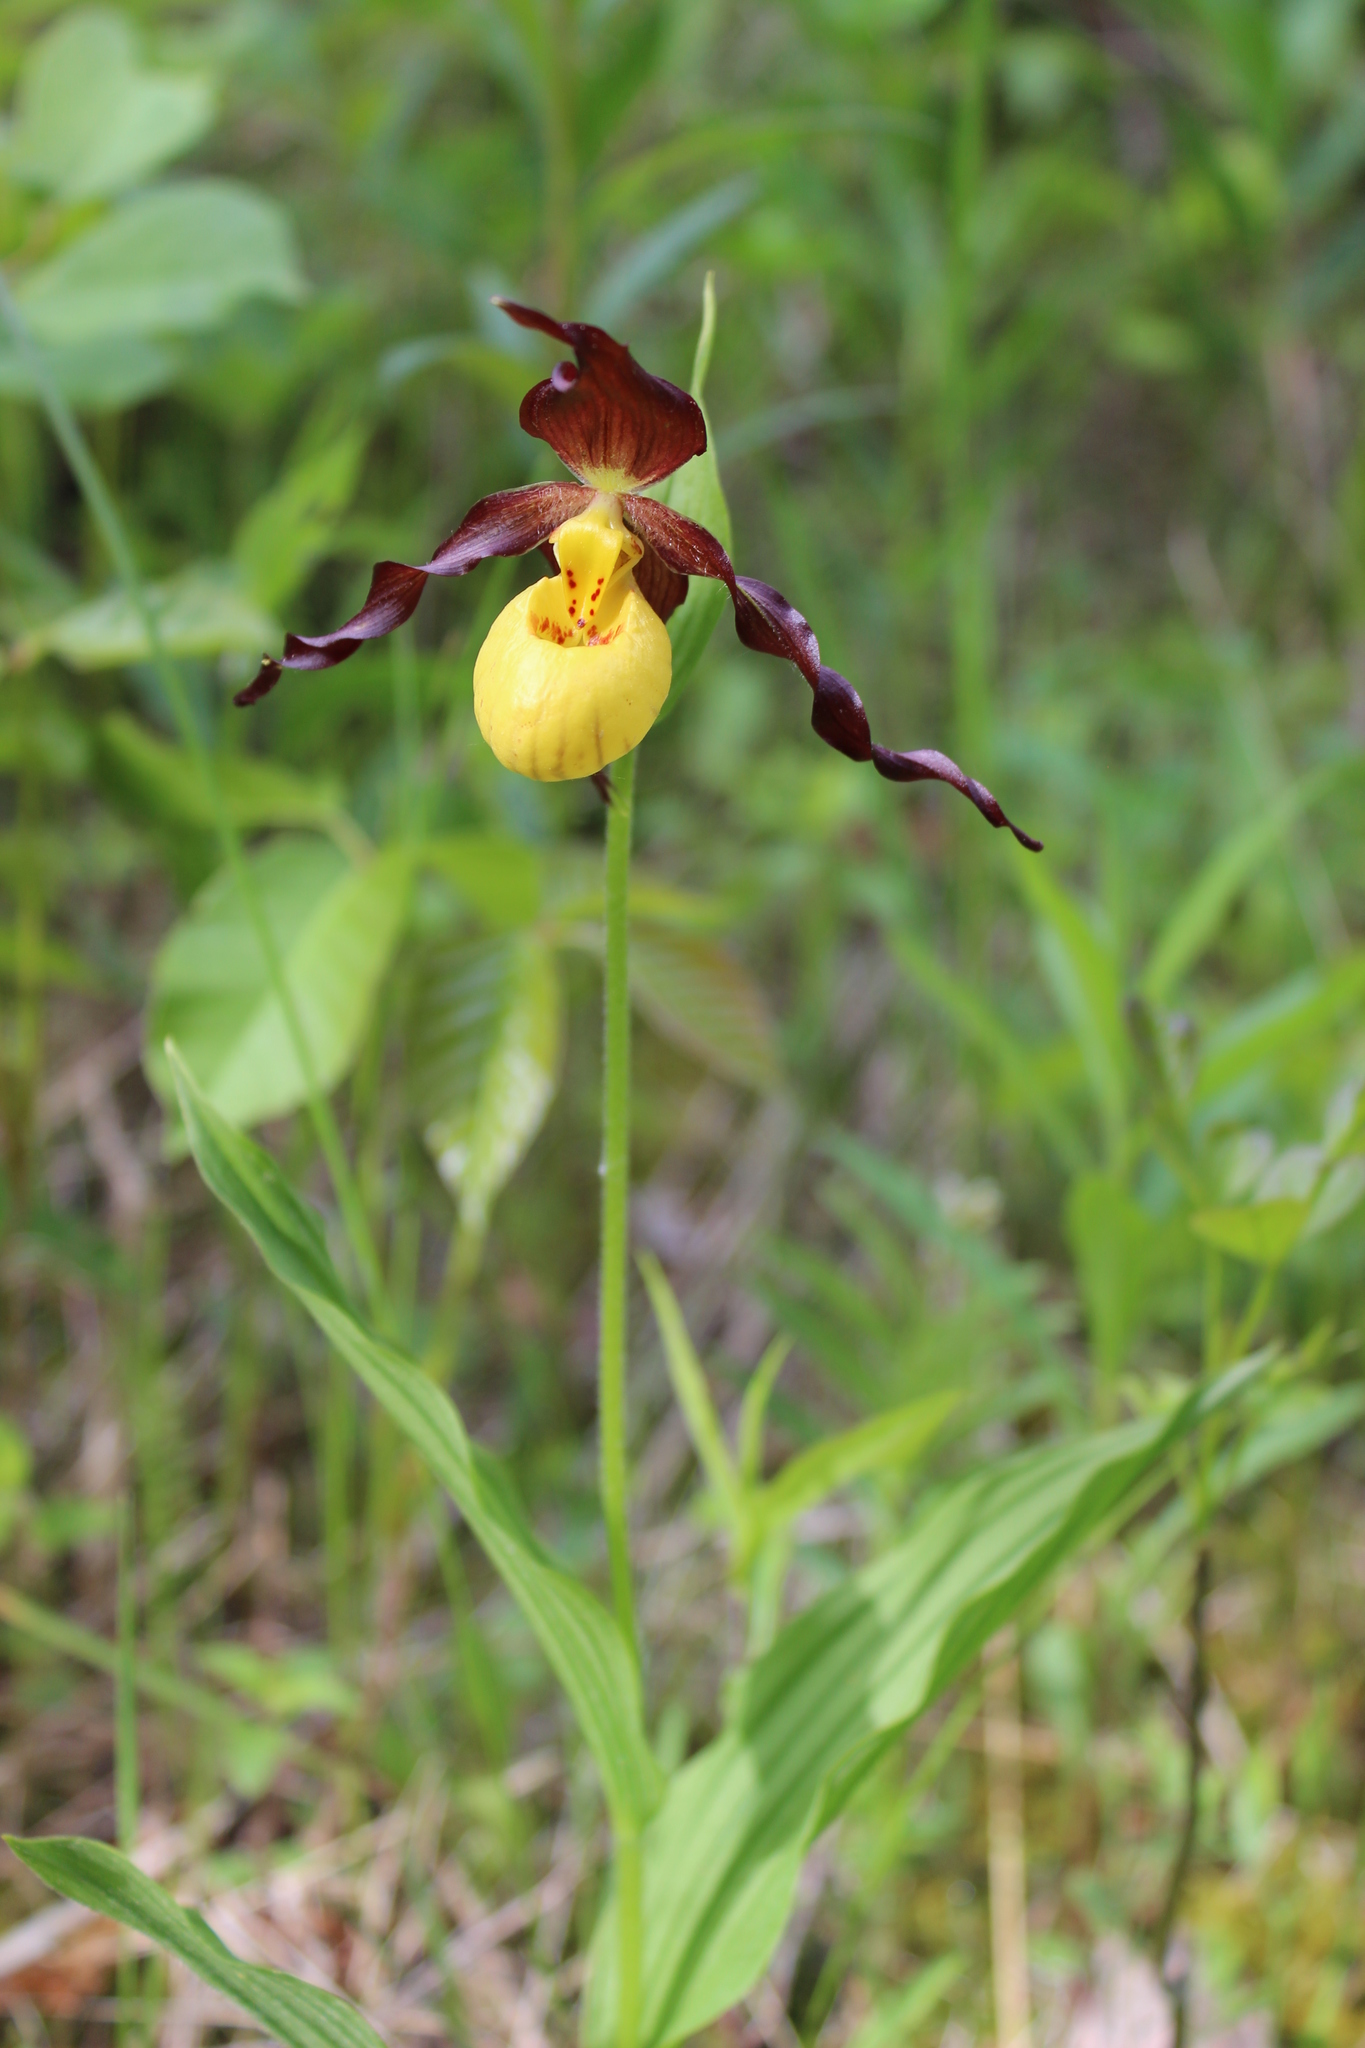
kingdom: Plantae
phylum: Tracheophyta
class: Liliopsida
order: Asparagales
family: Orchidaceae
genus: Cypripedium
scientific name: Cypripedium parviflorum
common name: American yellow lady's-slipper
